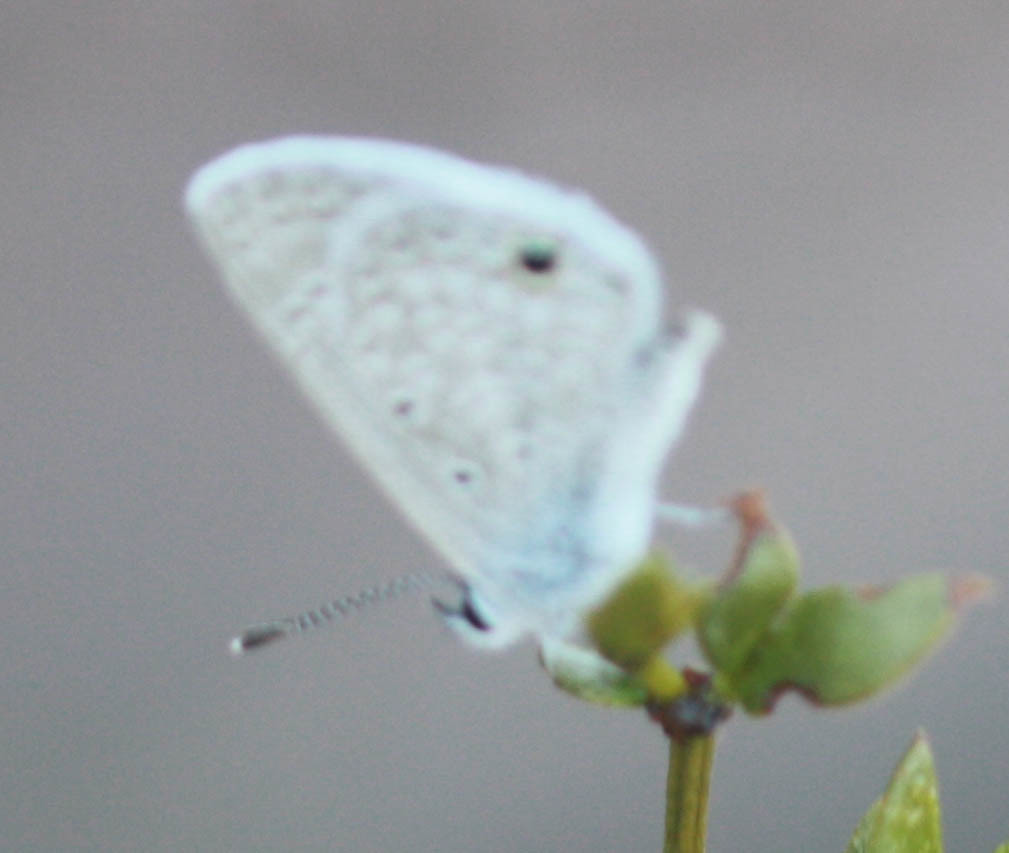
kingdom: Animalia
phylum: Arthropoda
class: Insecta
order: Lepidoptera
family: Lycaenidae
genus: Hemiargus
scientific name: Hemiargus ceraunus
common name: Ceraunus blue
